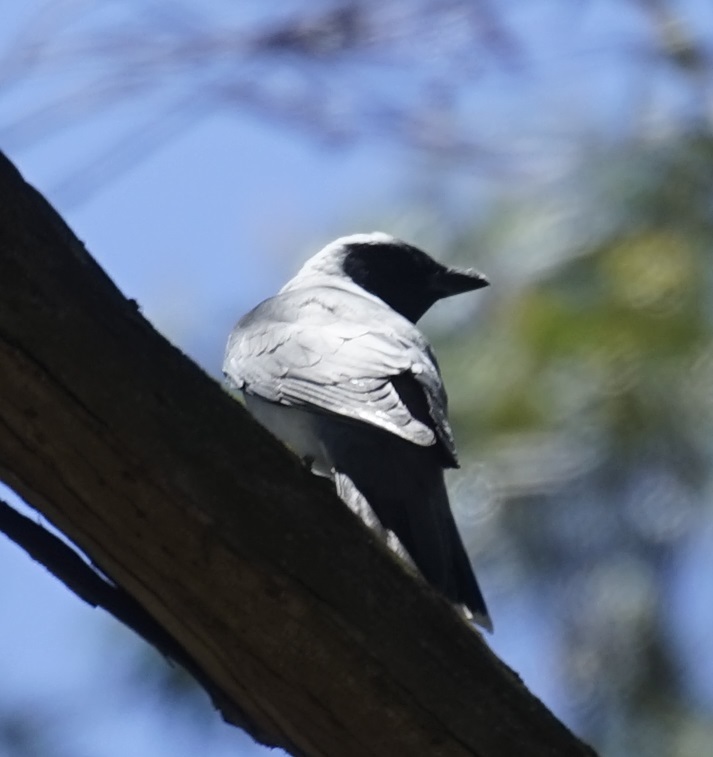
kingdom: Animalia
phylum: Chordata
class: Aves
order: Passeriformes
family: Campephagidae
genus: Coracina
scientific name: Coracina novaehollandiae
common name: Black-faced cuckooshrike
